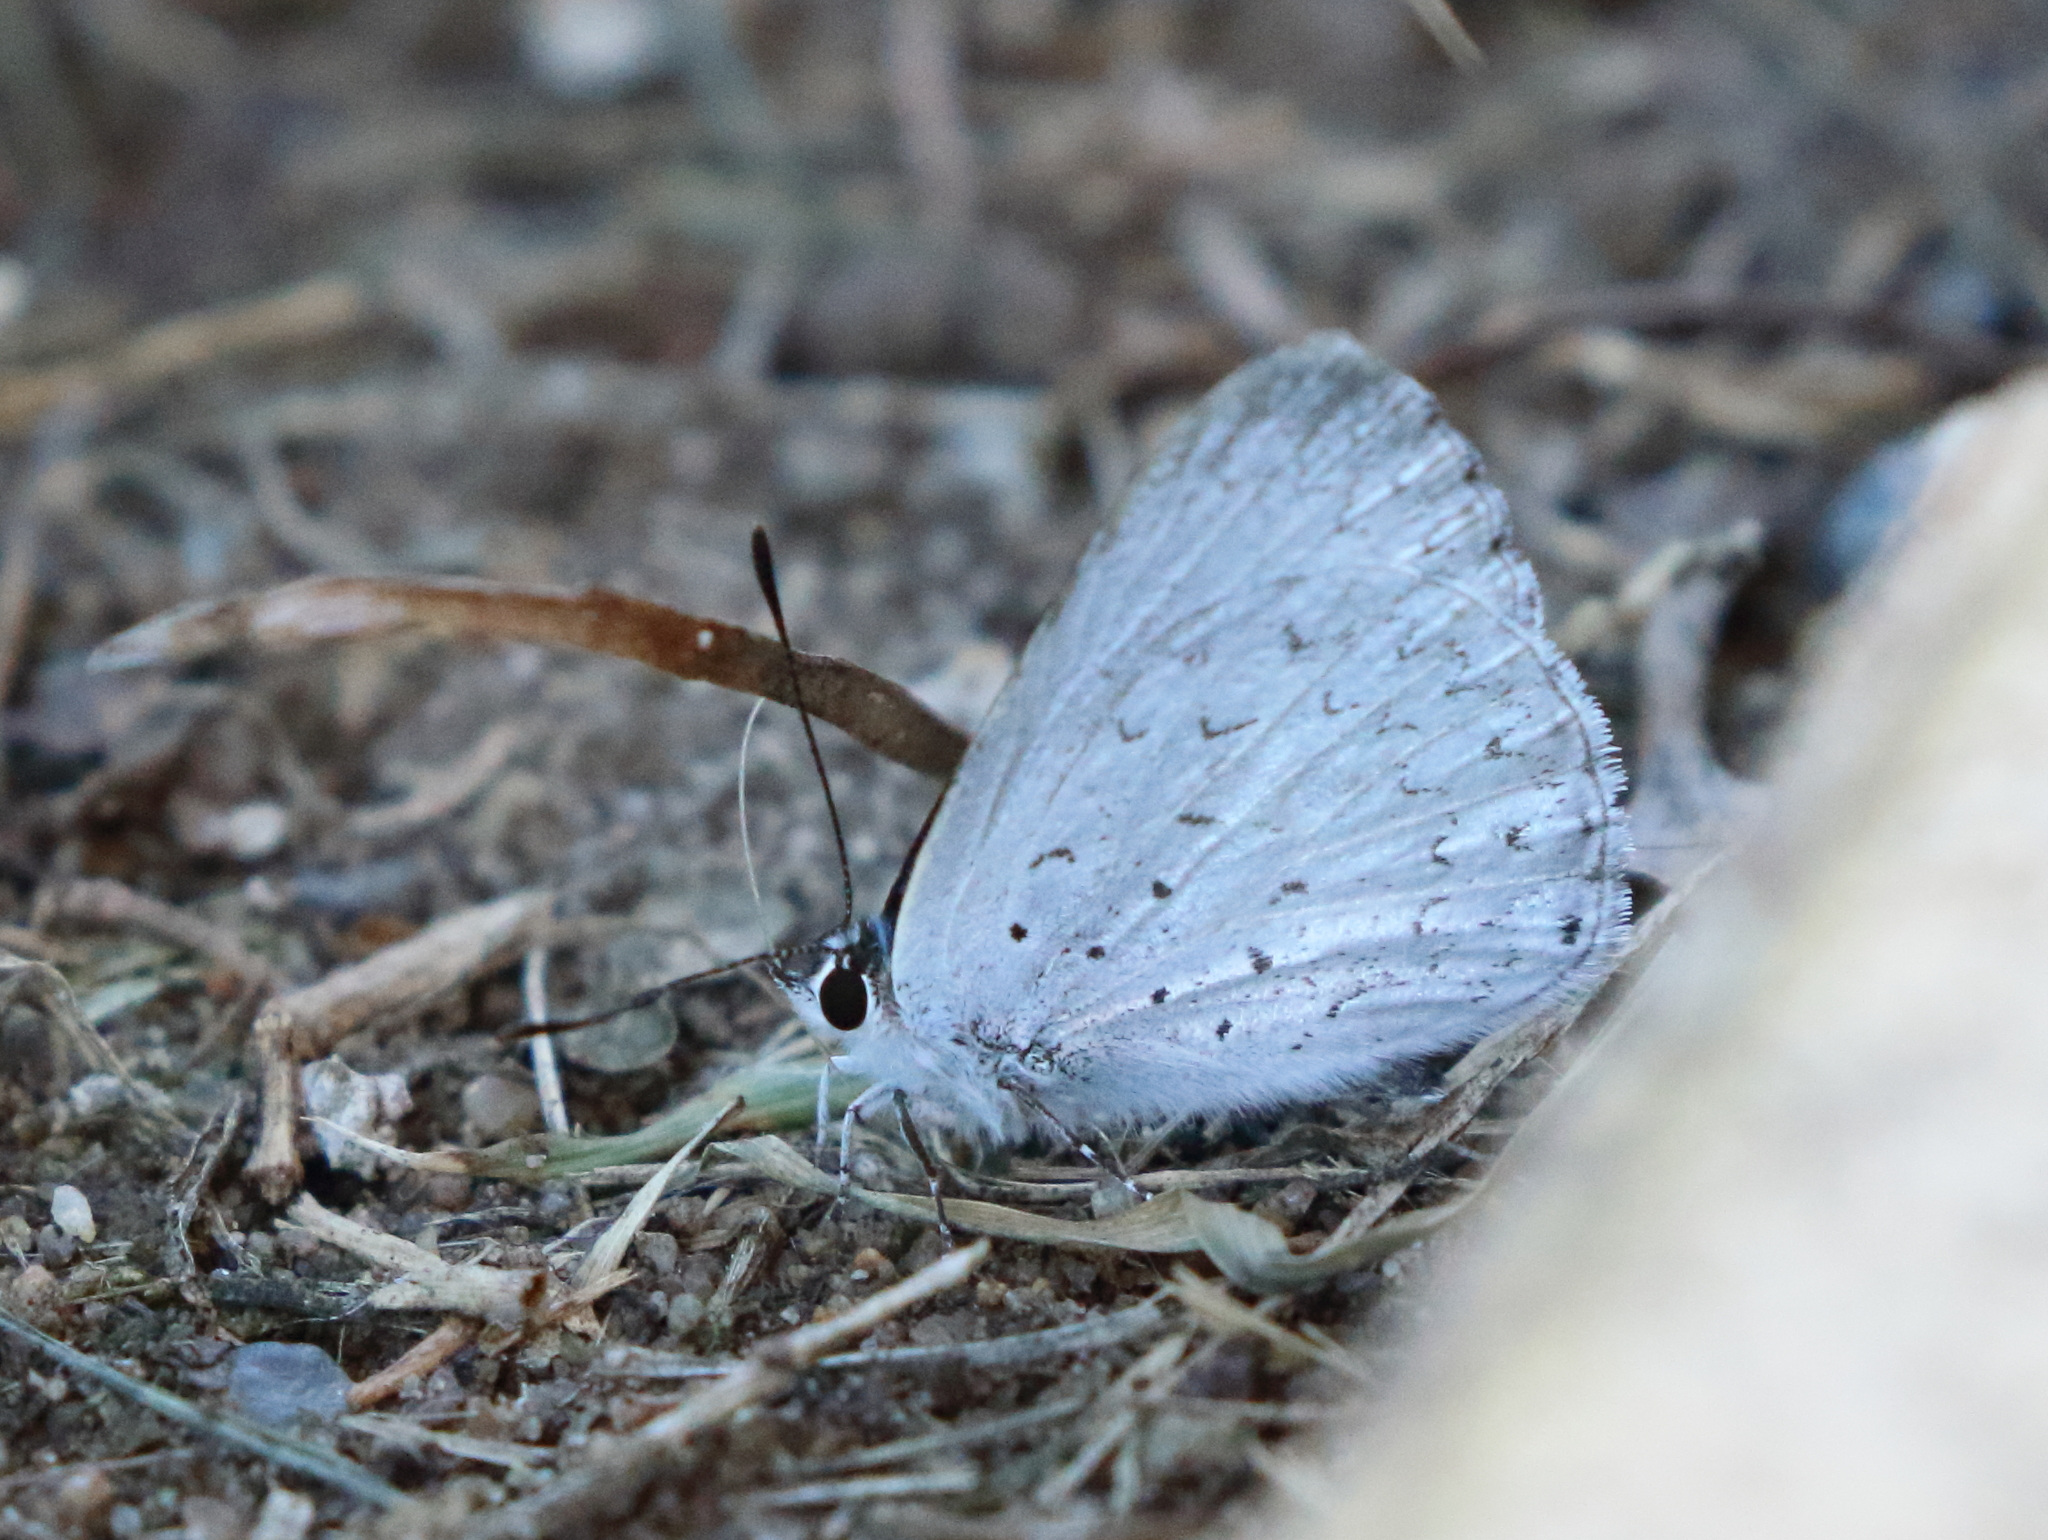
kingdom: Animalia
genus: Eirmocides
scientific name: Eirmocides
